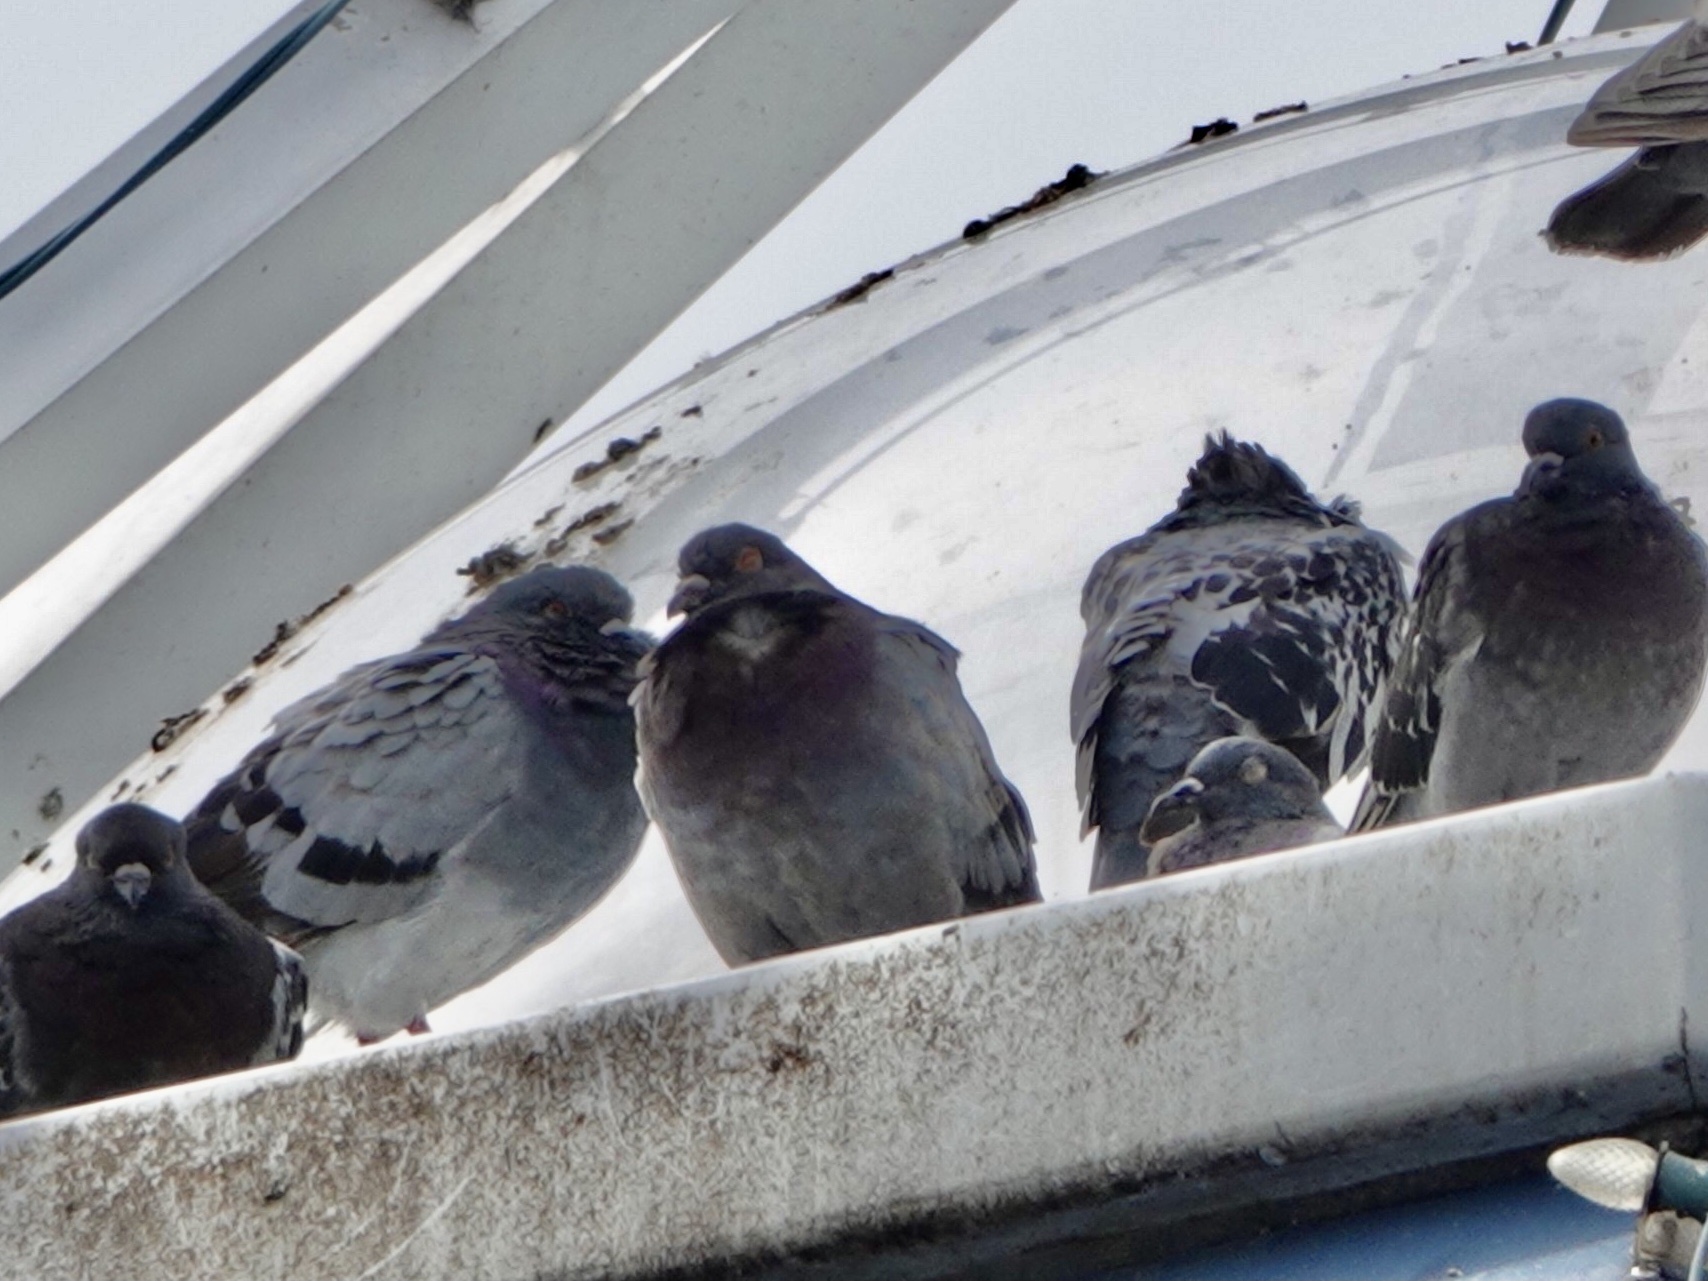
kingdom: Animalia
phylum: Chordata
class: Aves
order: Columbiformes
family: Columbidae
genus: Columba
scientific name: Columba livia
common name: Rock pigeon
